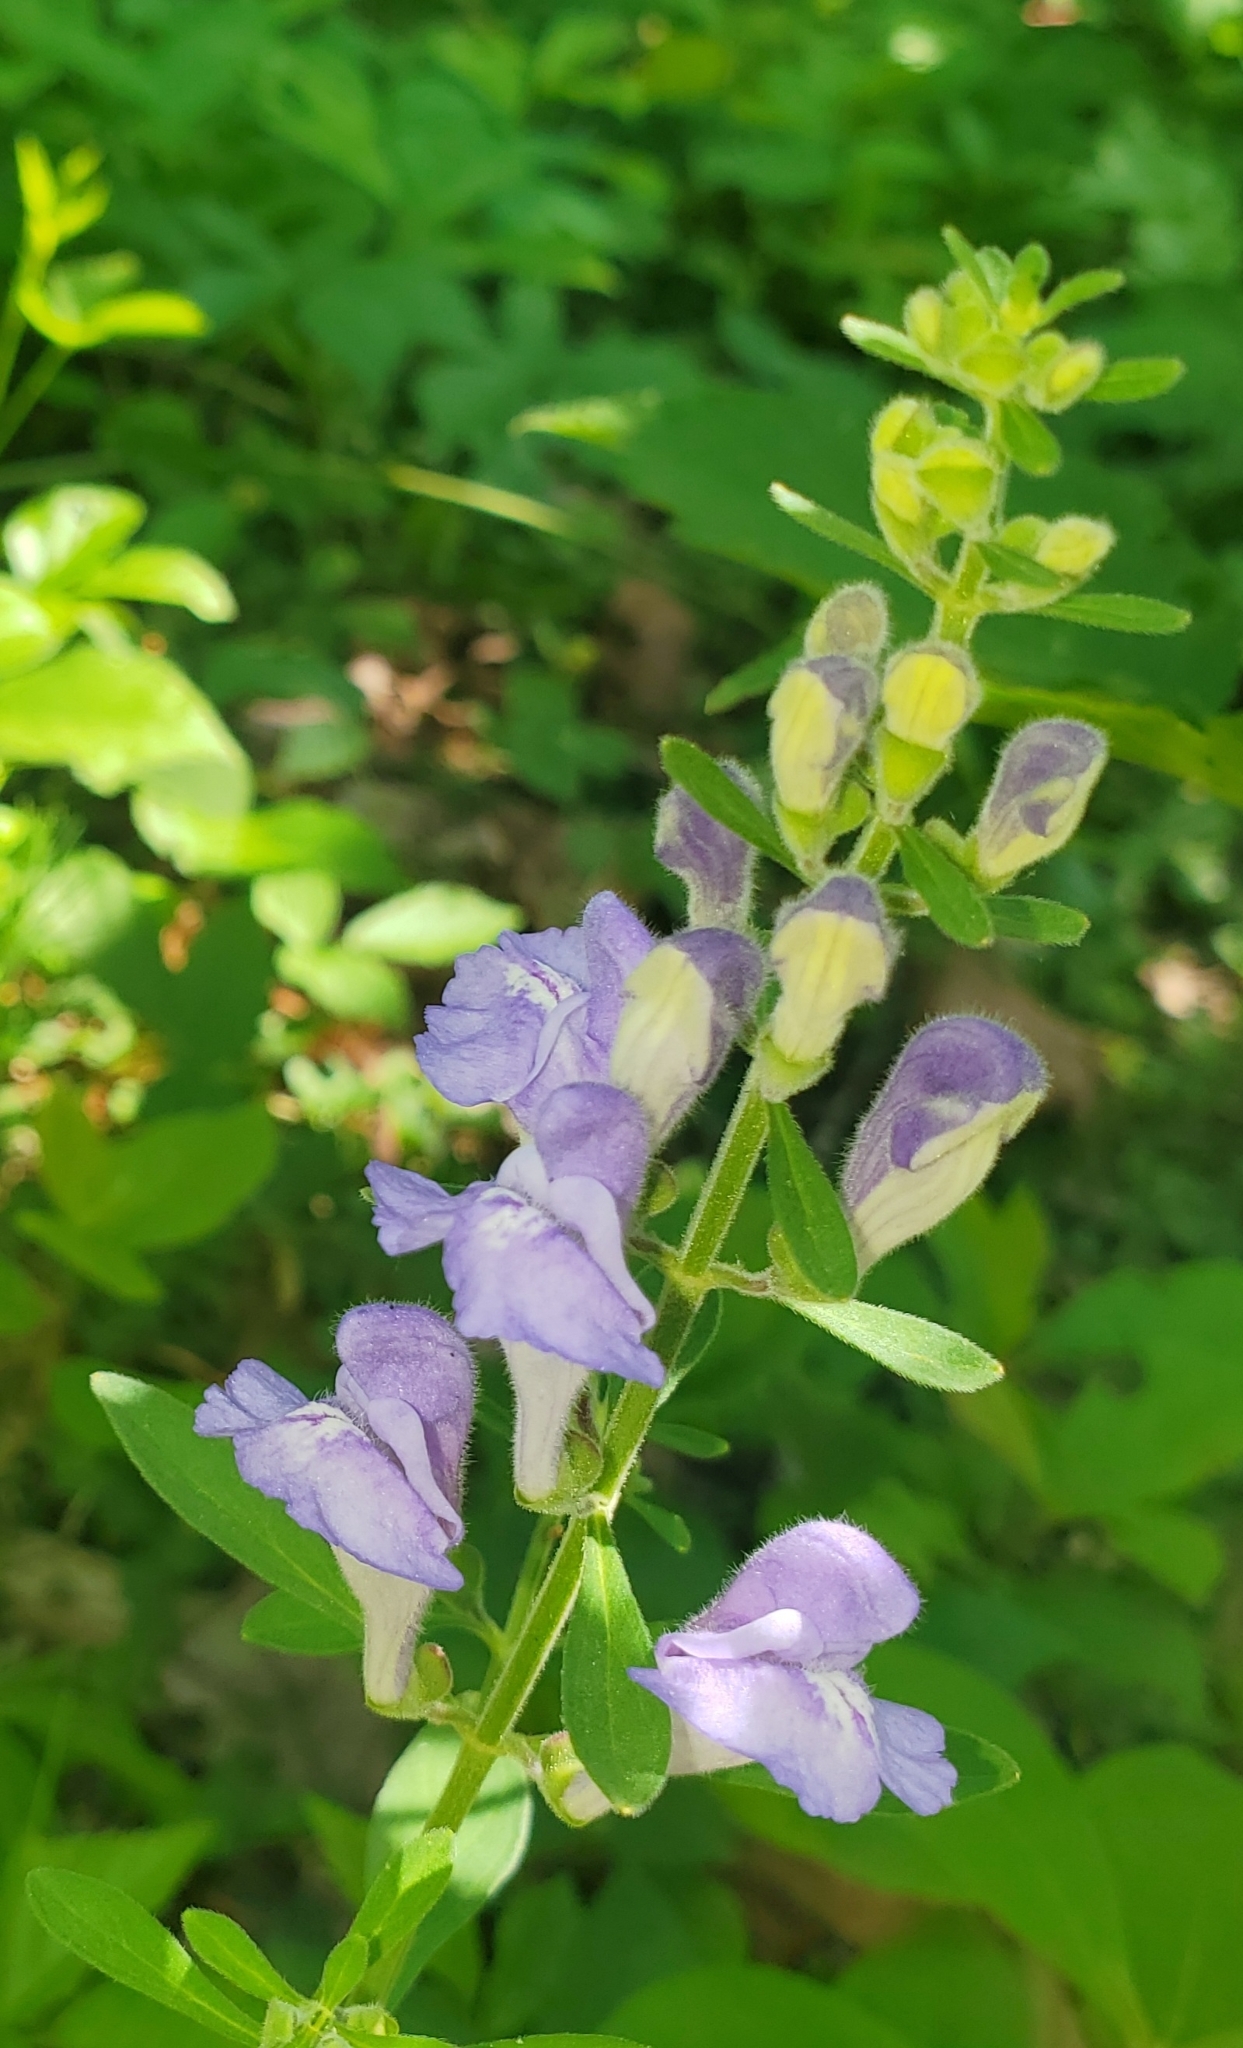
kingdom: Plantae
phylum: Tracheophyta
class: Magnoliopsida
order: Lamiales
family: Lamiaceae
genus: Scutellaria
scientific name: Scutellaria integrifolia
